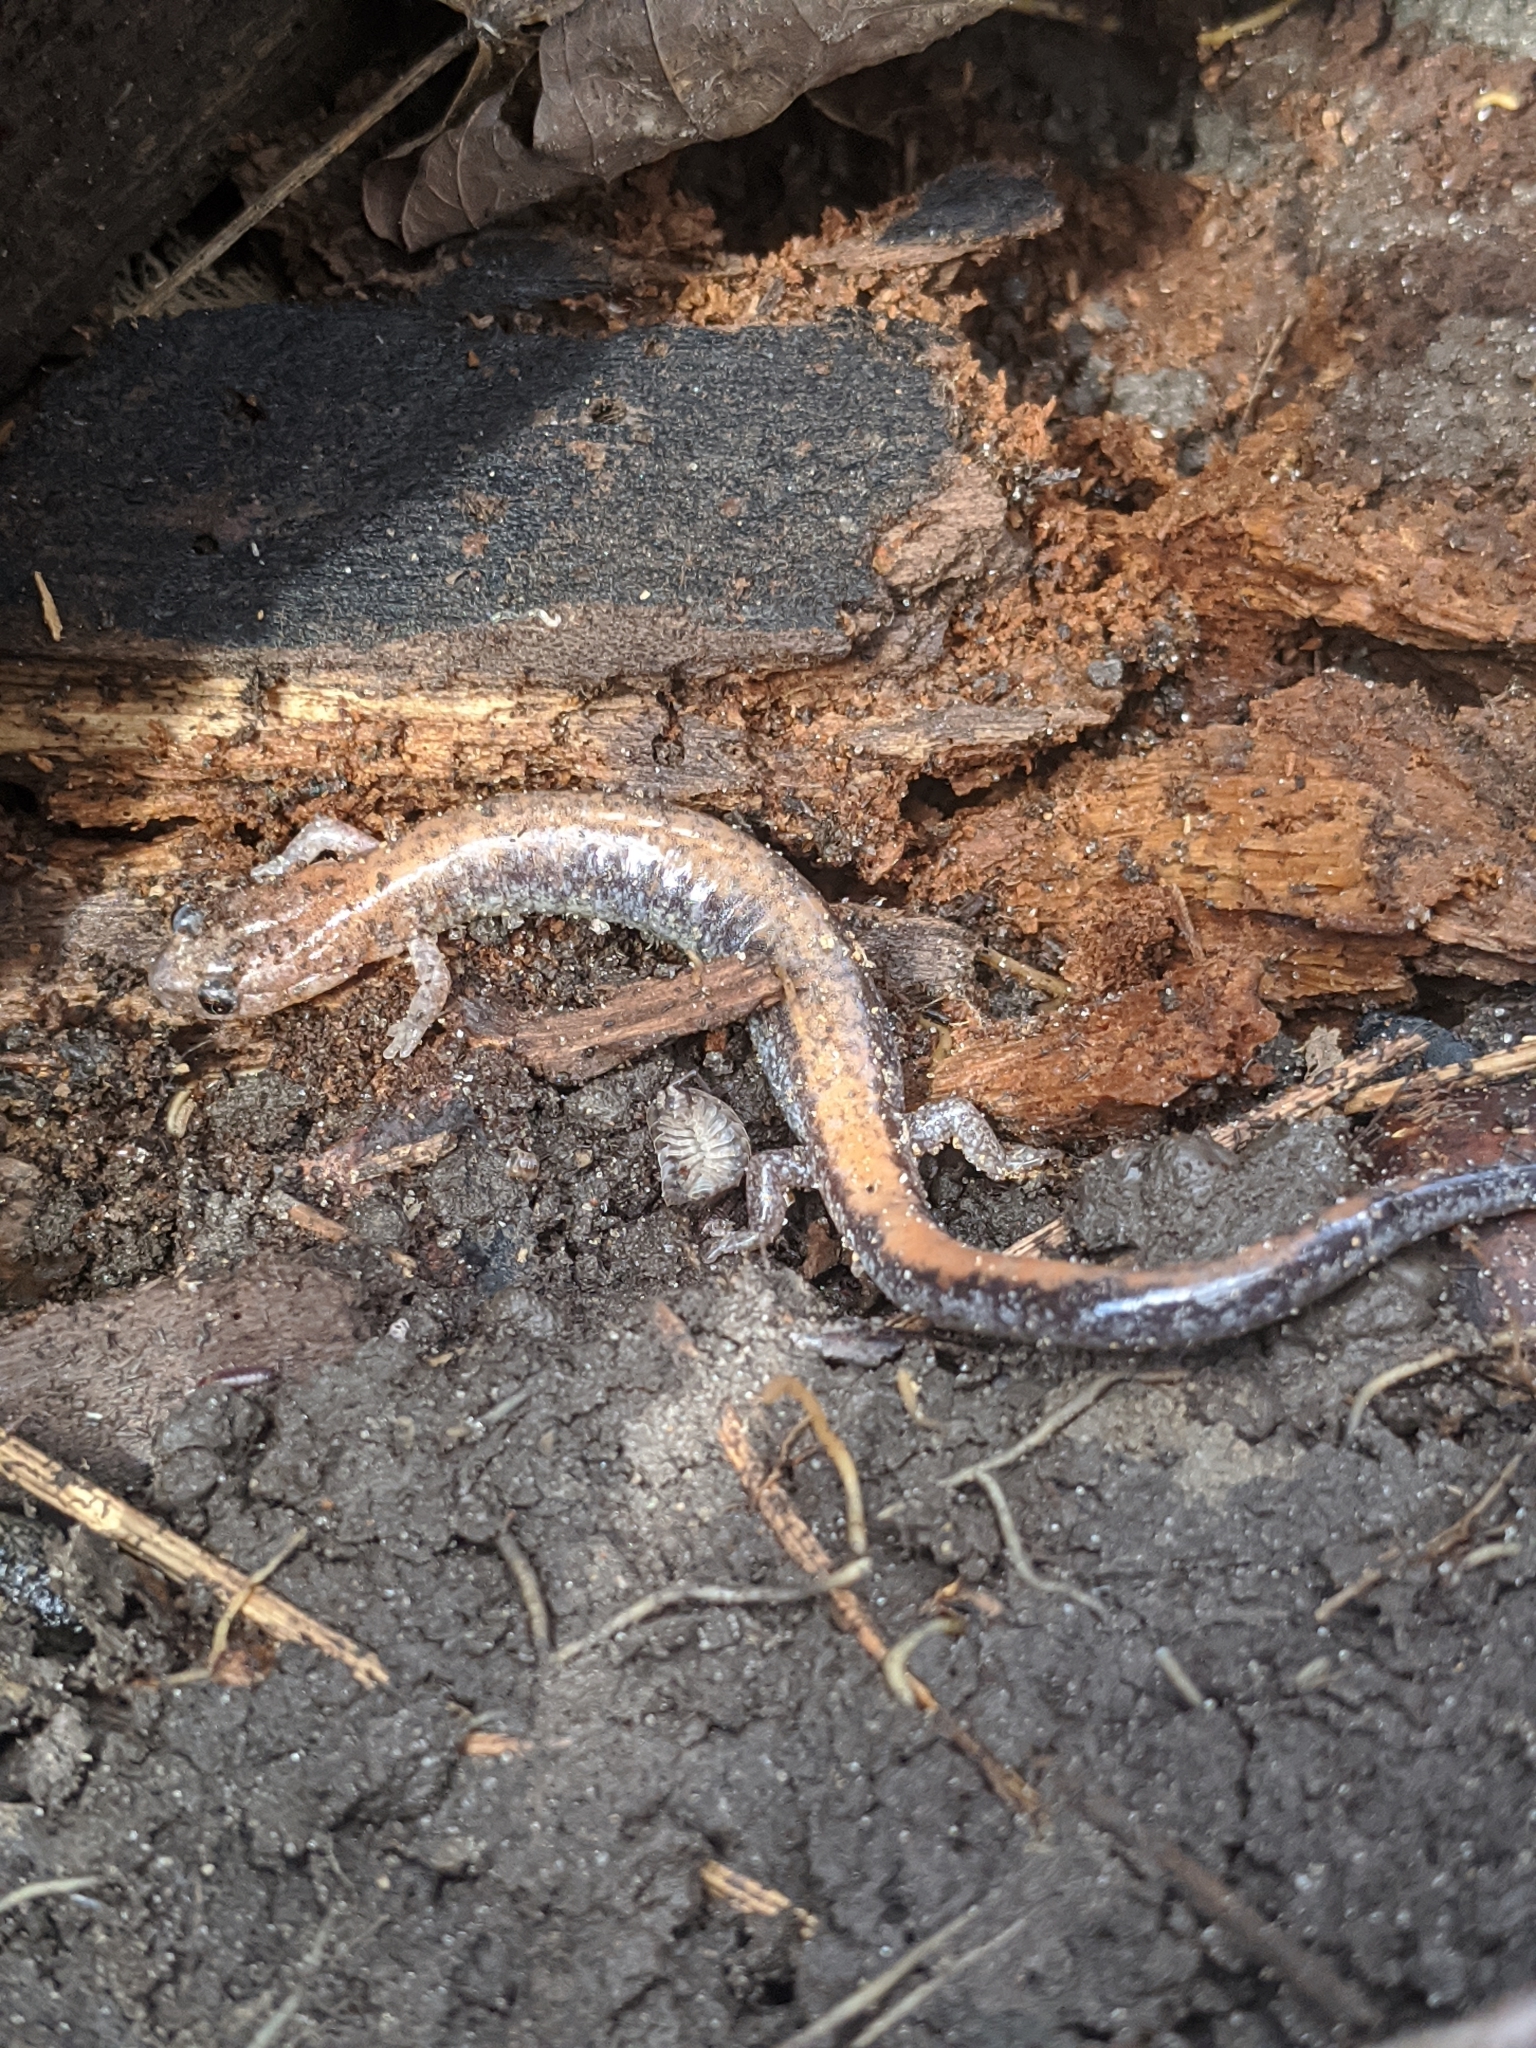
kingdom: Animalia
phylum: Chordata
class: Amphibia
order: Caudata
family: Plethodontidae
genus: Plethodon
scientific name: Plethodon cinereus
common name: Redback salamander
